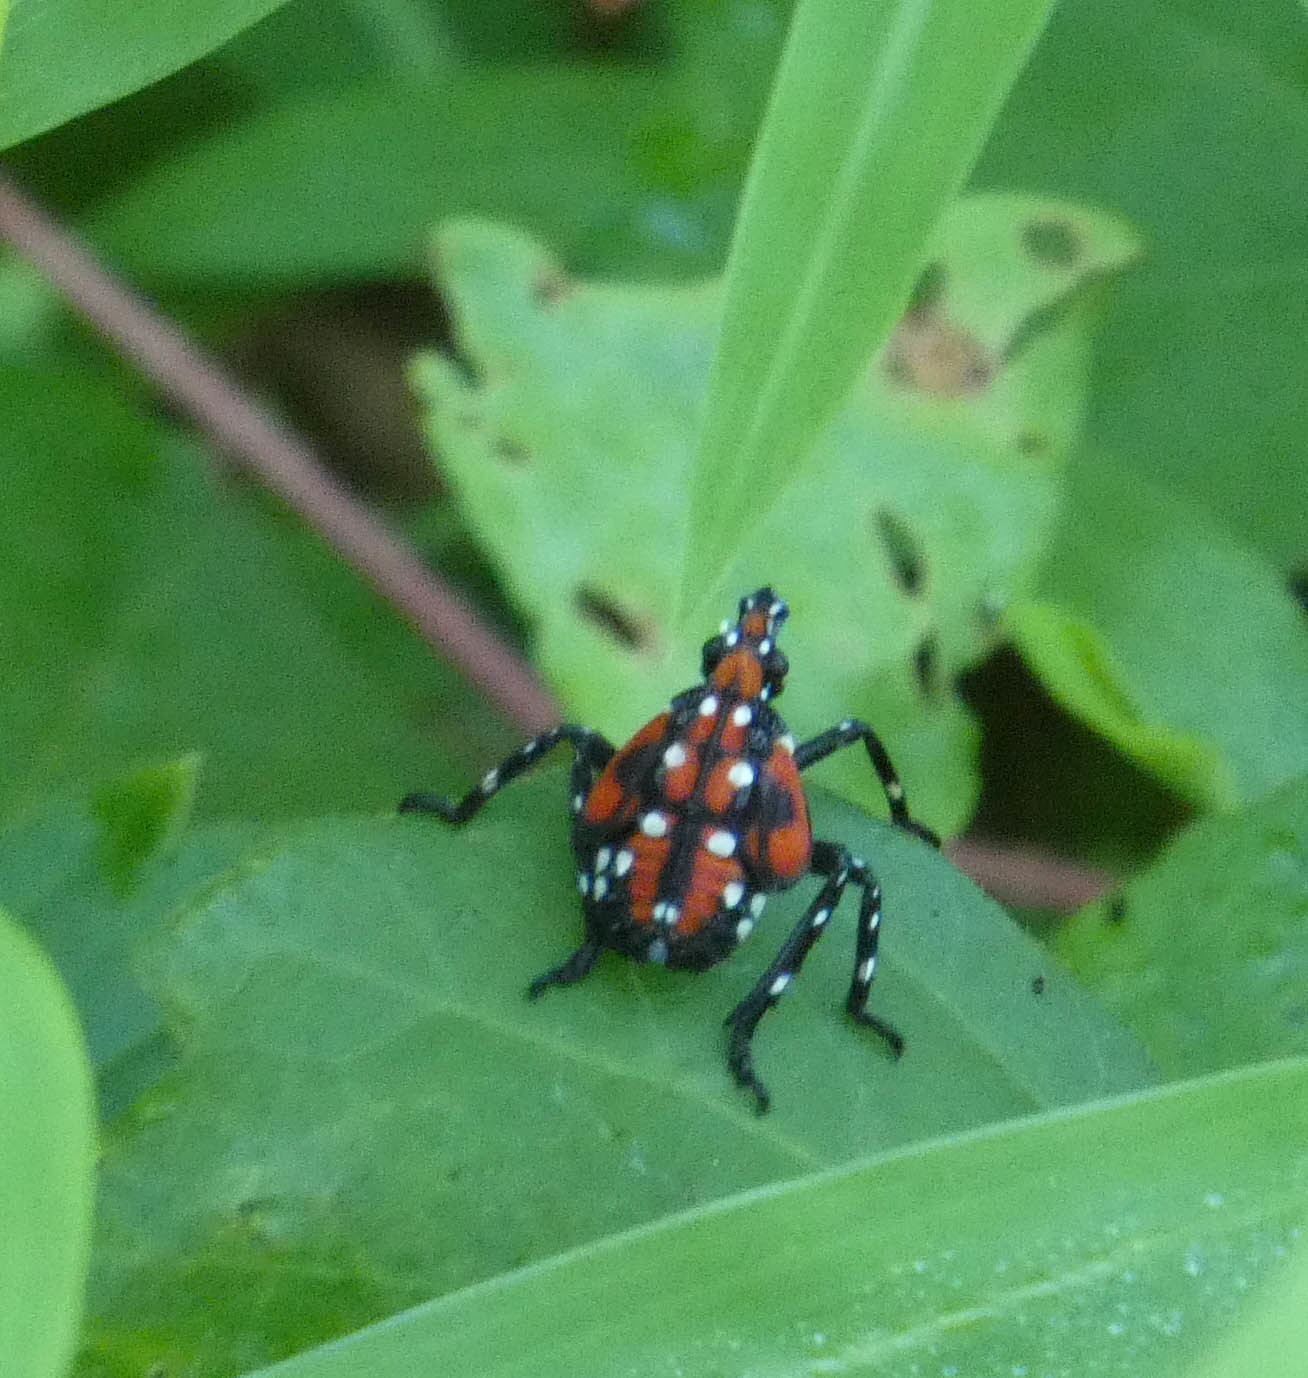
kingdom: Animalia
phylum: Arthropoda
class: Insecta
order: Hemiptera
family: Fulgoridae
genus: Lycorma
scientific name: Lycorma delicatula
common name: Spotted lanternfly
